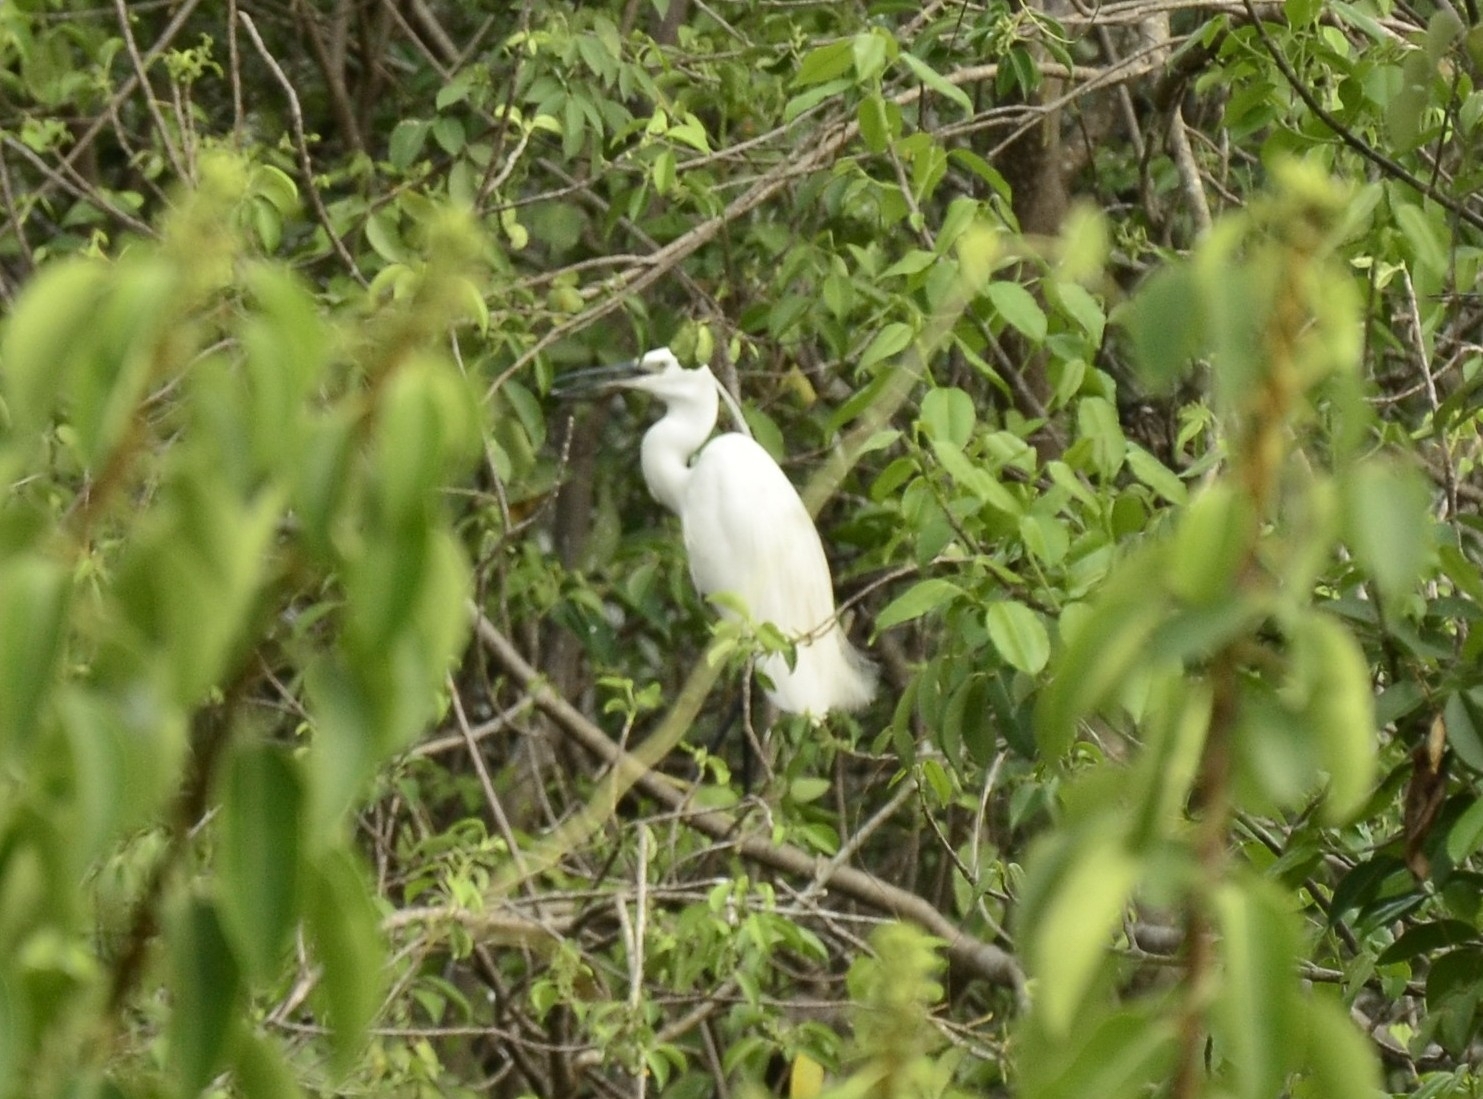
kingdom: Animalia
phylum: Chordata
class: Aves
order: Pelecaniformes
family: Ardeidae
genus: Egretta
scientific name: Egretta garzetta
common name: Little egret
